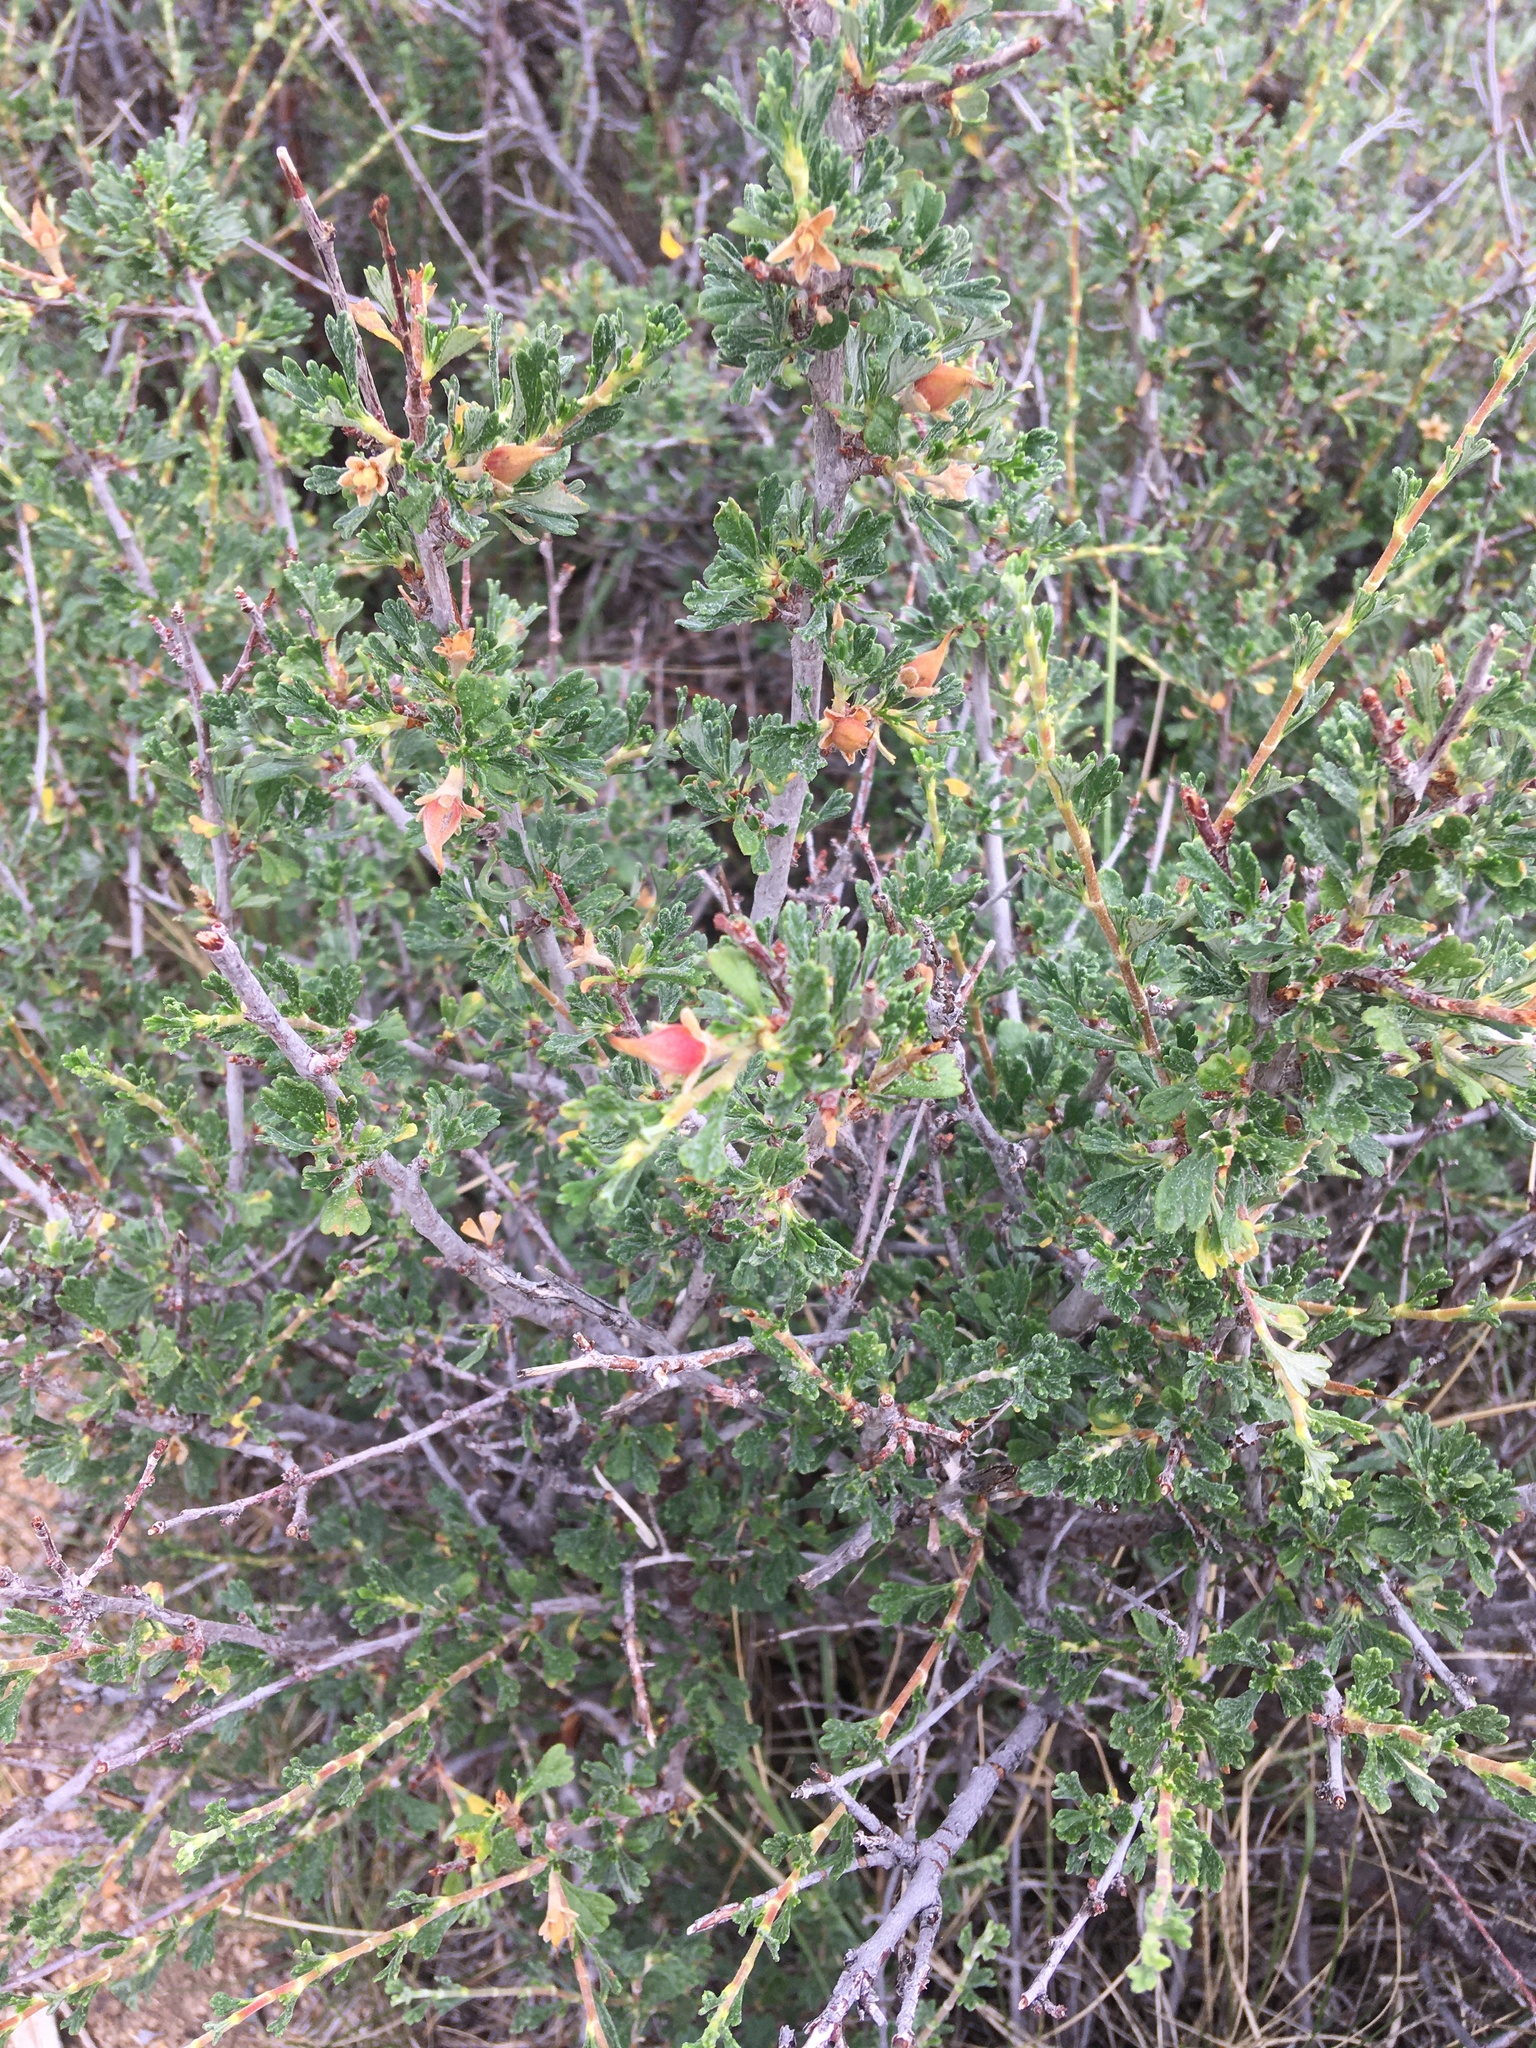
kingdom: Plantae
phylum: Tracheophyta
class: Magnoliopsida
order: Rosales
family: Rosaceae
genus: Purshia
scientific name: Purshia tridentata
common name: Antelope bitterbrush
